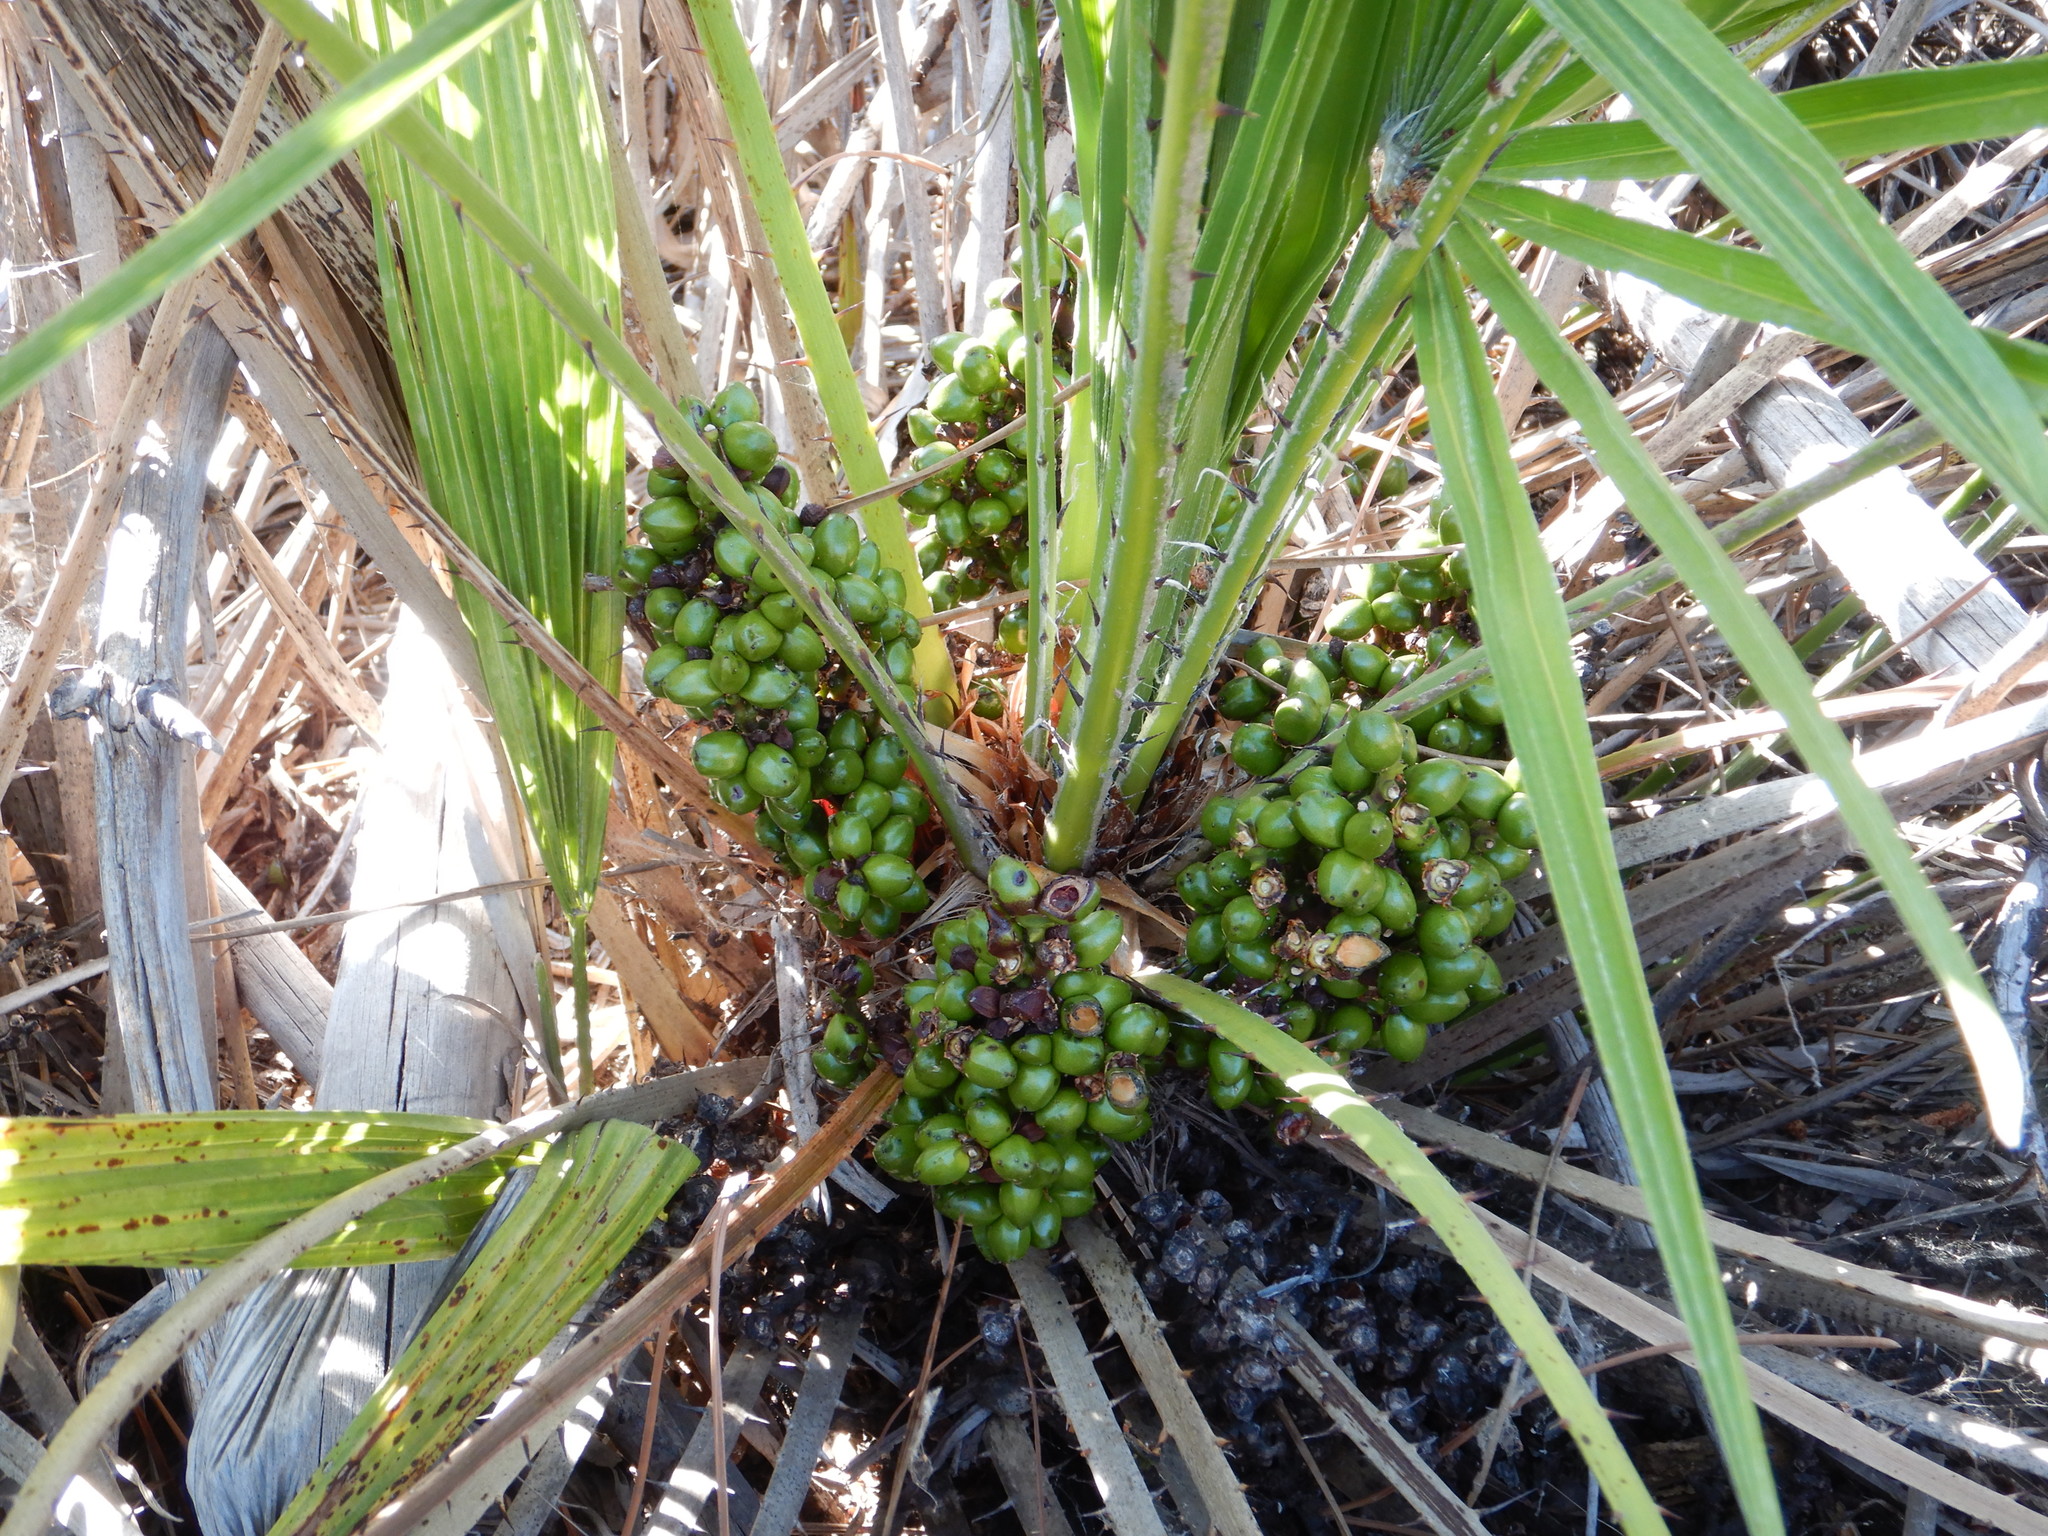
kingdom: Plantae
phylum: Tracheophyta
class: Liliopsida
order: Arecales
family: Arecaceae
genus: Chamaerops
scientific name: Chamaerops humilis
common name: Dwarf fan palm
